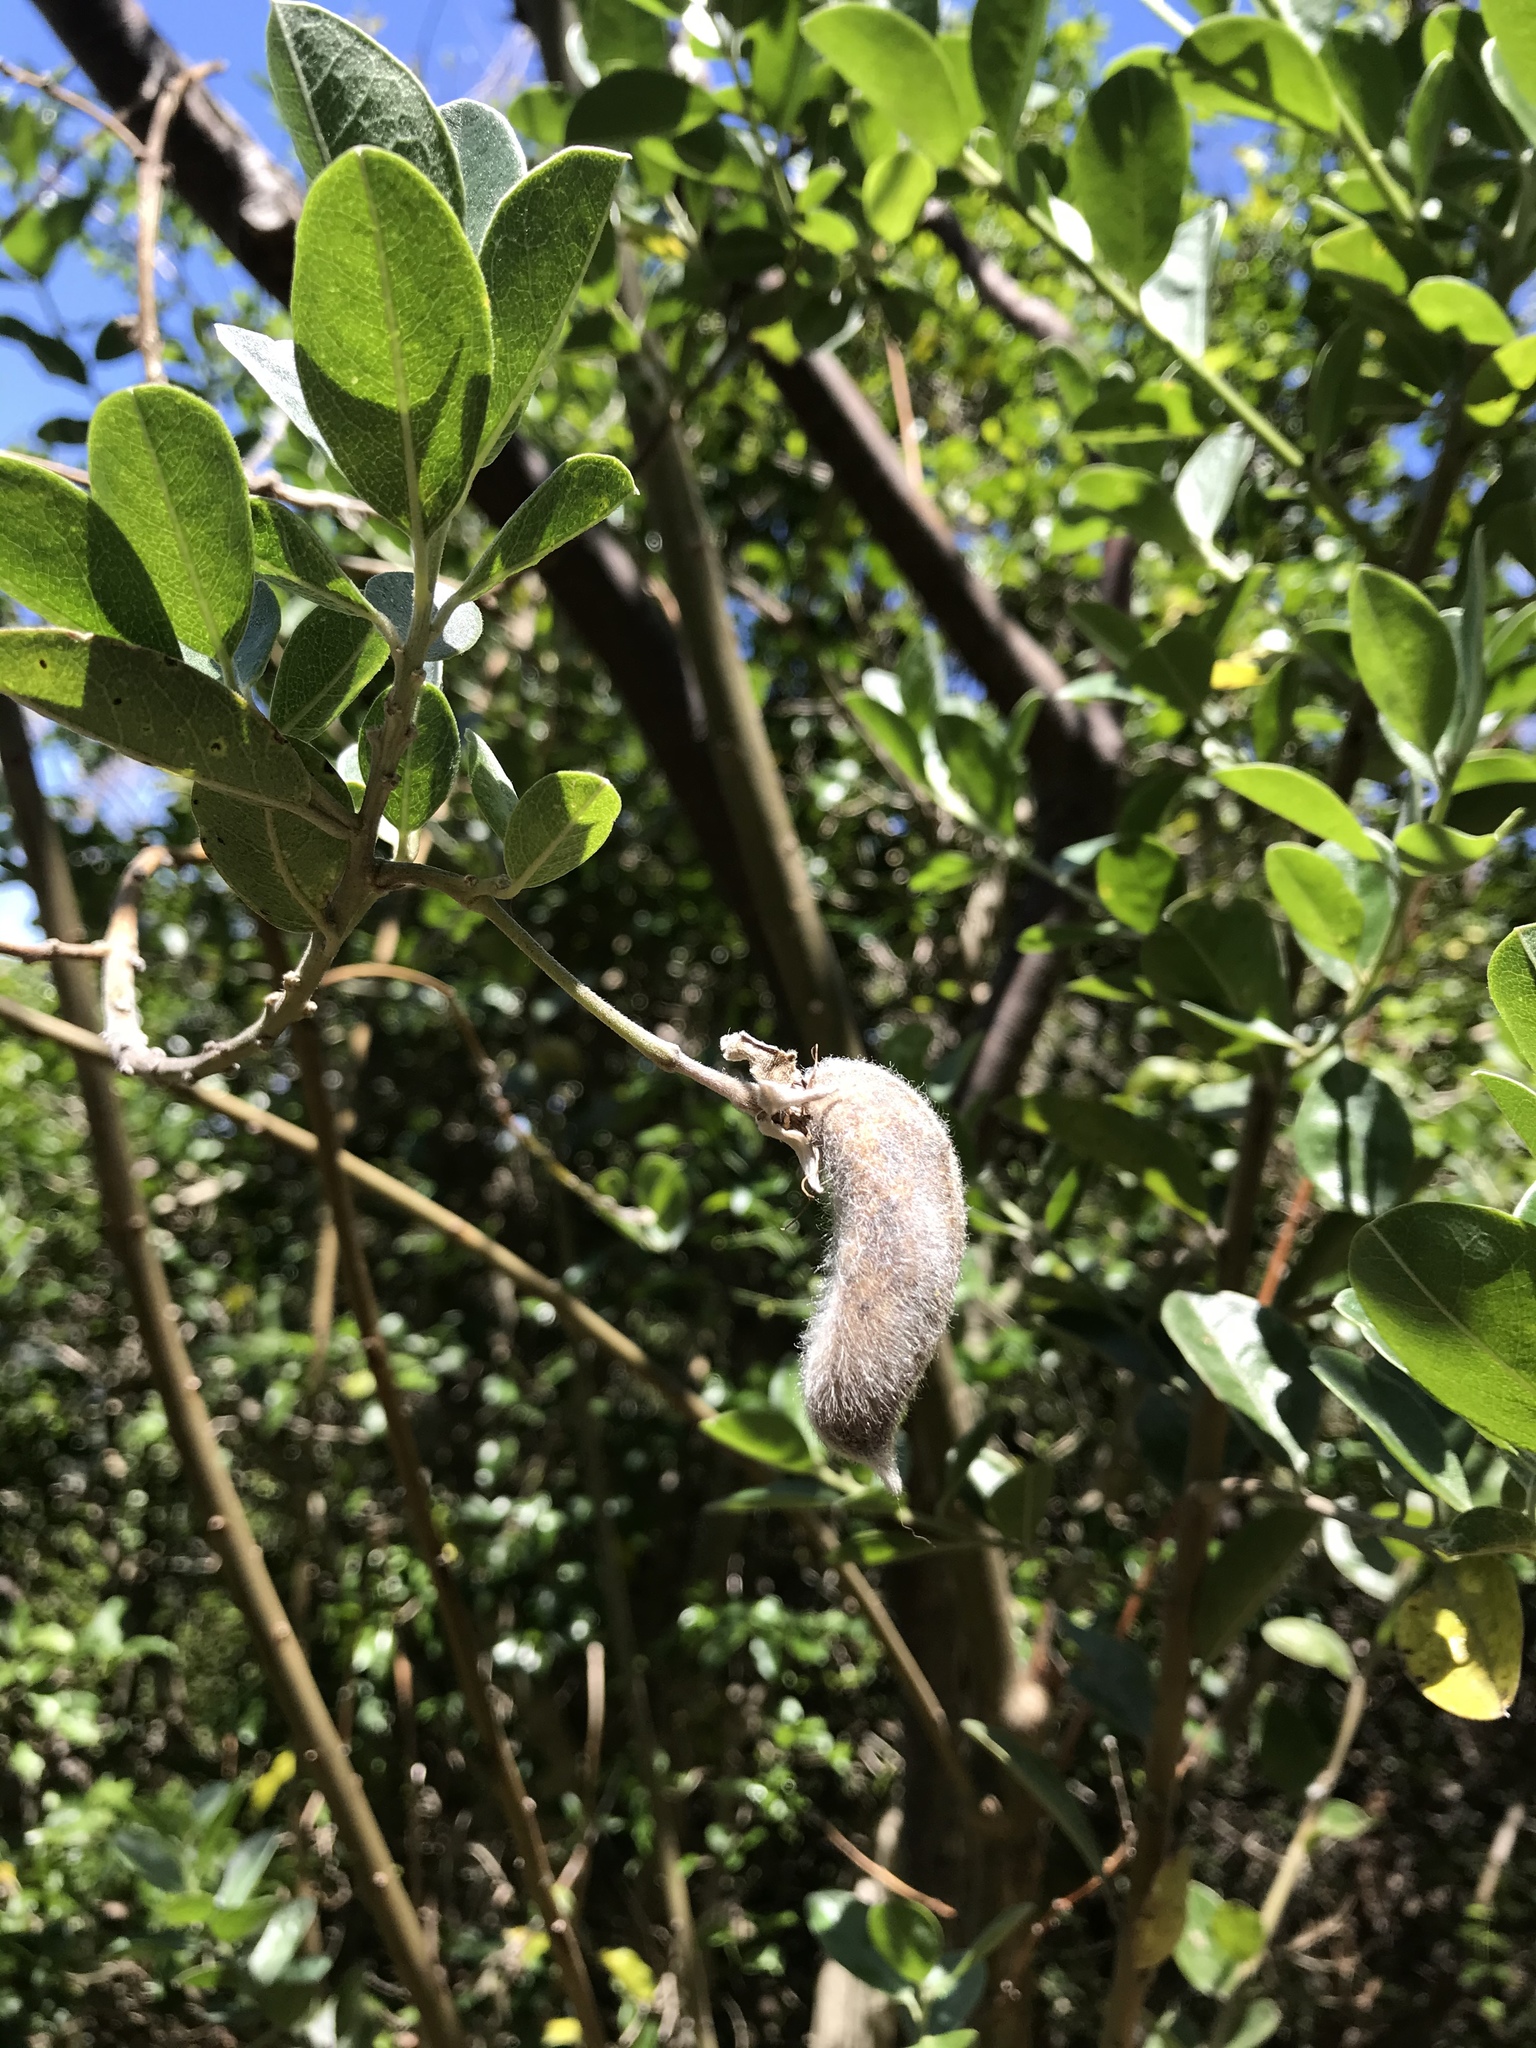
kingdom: Plantae
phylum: Tracheophyta
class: Magnoliopsida
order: Fabales
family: Fabaceae
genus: Podalyria
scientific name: Podalyria calyptrata
